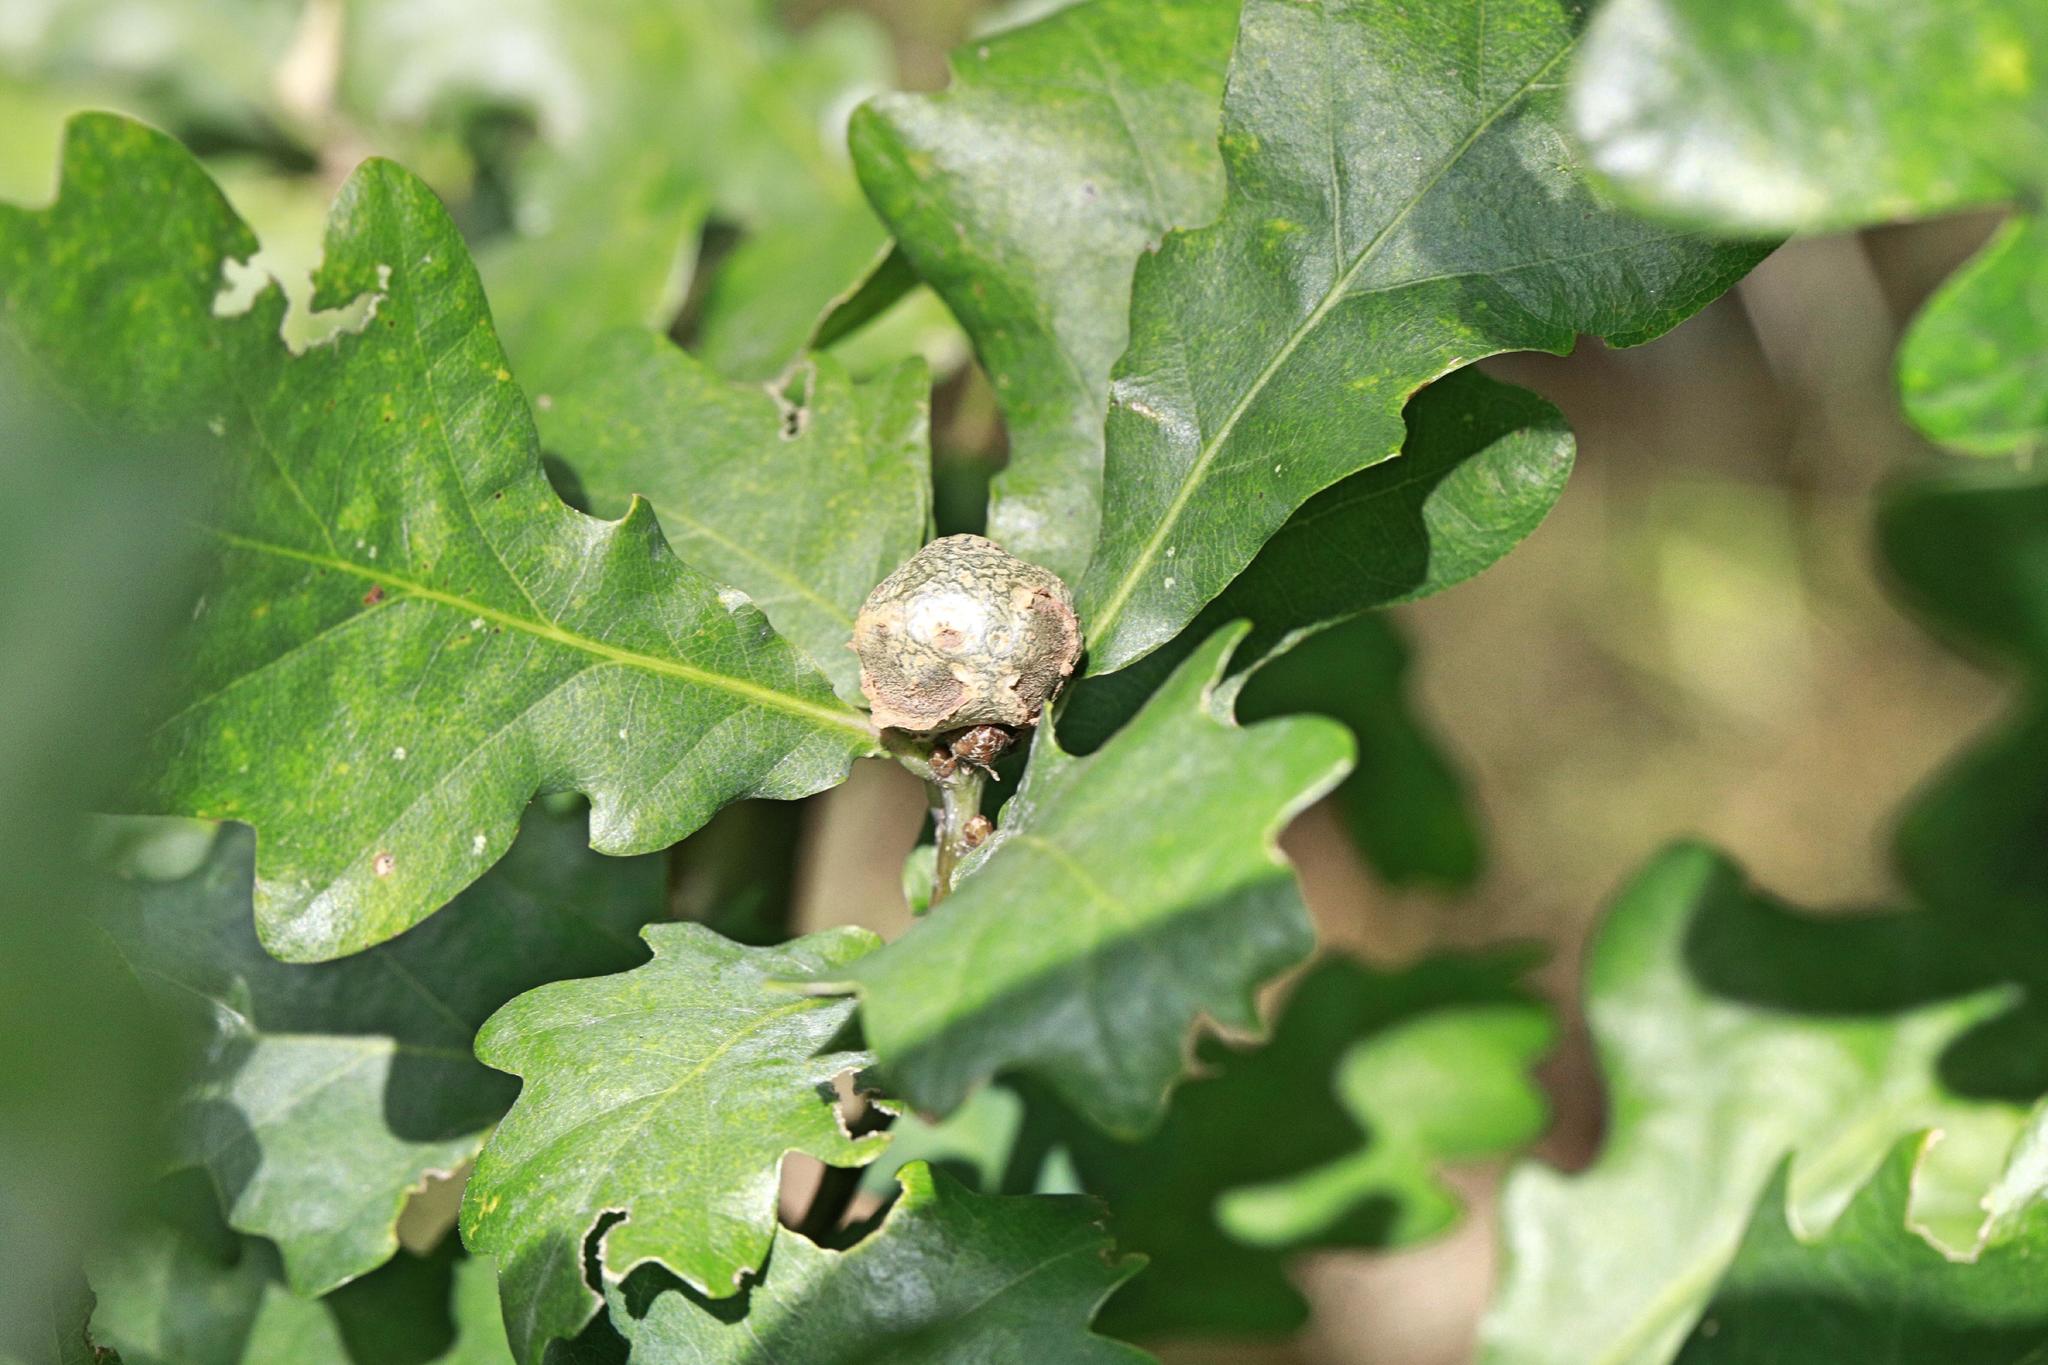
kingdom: Plantae
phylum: Tracheophyta
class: Magnoliopsida
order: Fagales
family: Fagaceae
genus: Quercus
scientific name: Quercus robur
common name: Pedunculate oak
